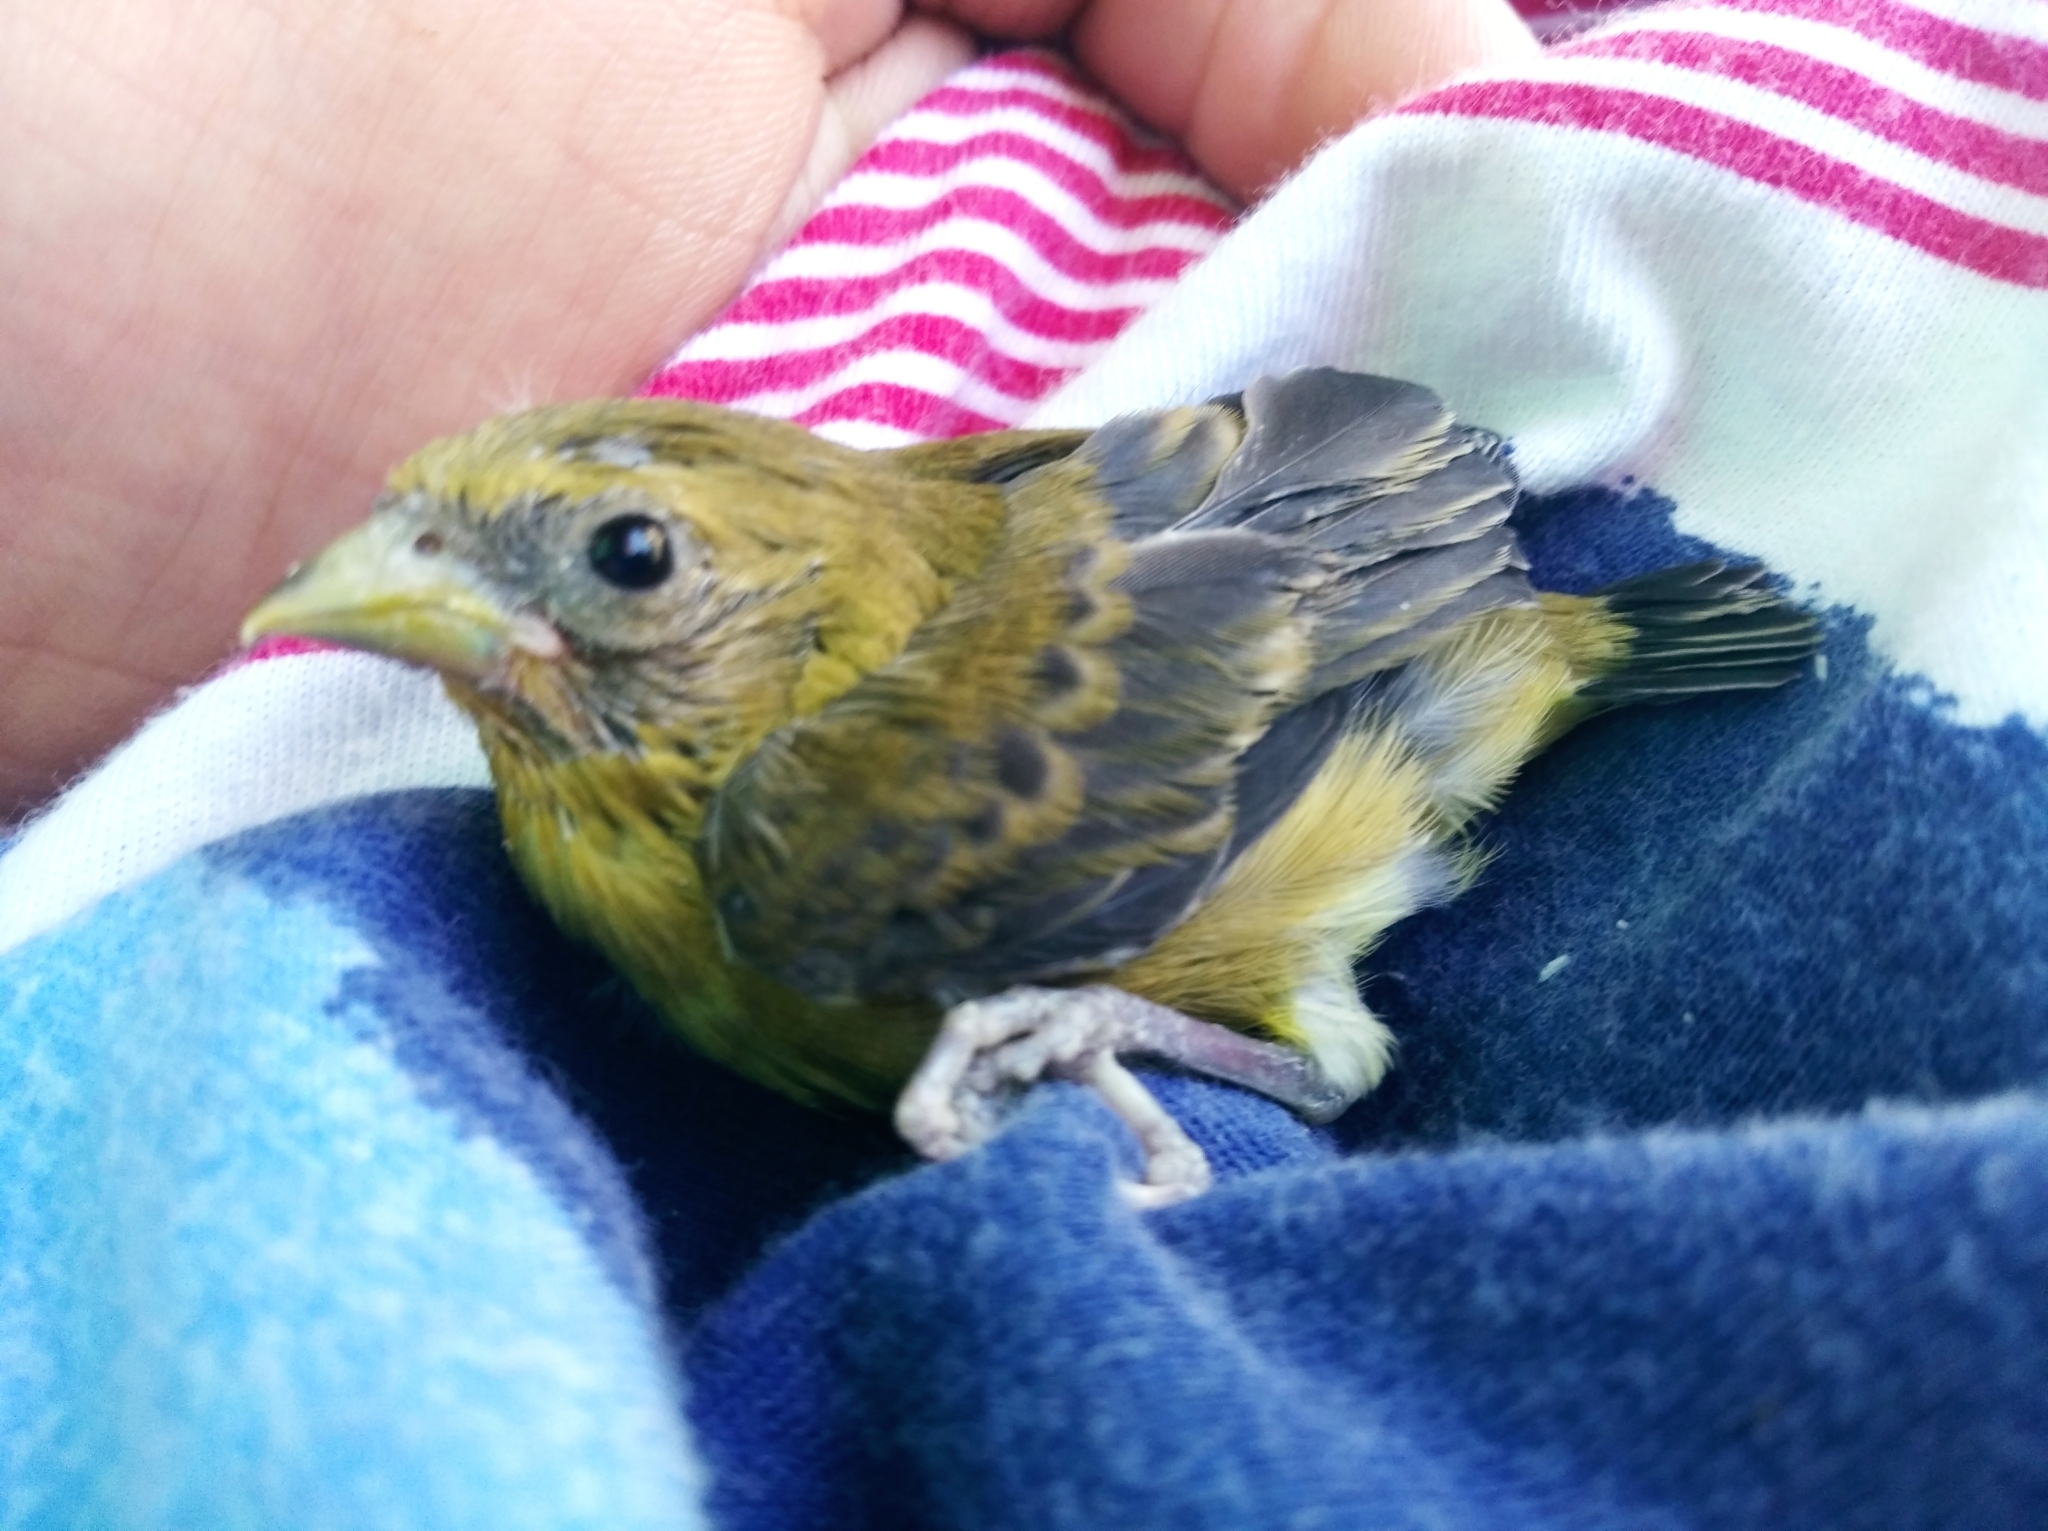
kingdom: Animalia
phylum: Chordata
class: Aves
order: Passeriformes
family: Fringillidae
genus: Spinus
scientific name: Spinus psaltria
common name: Lesser goldfinch
